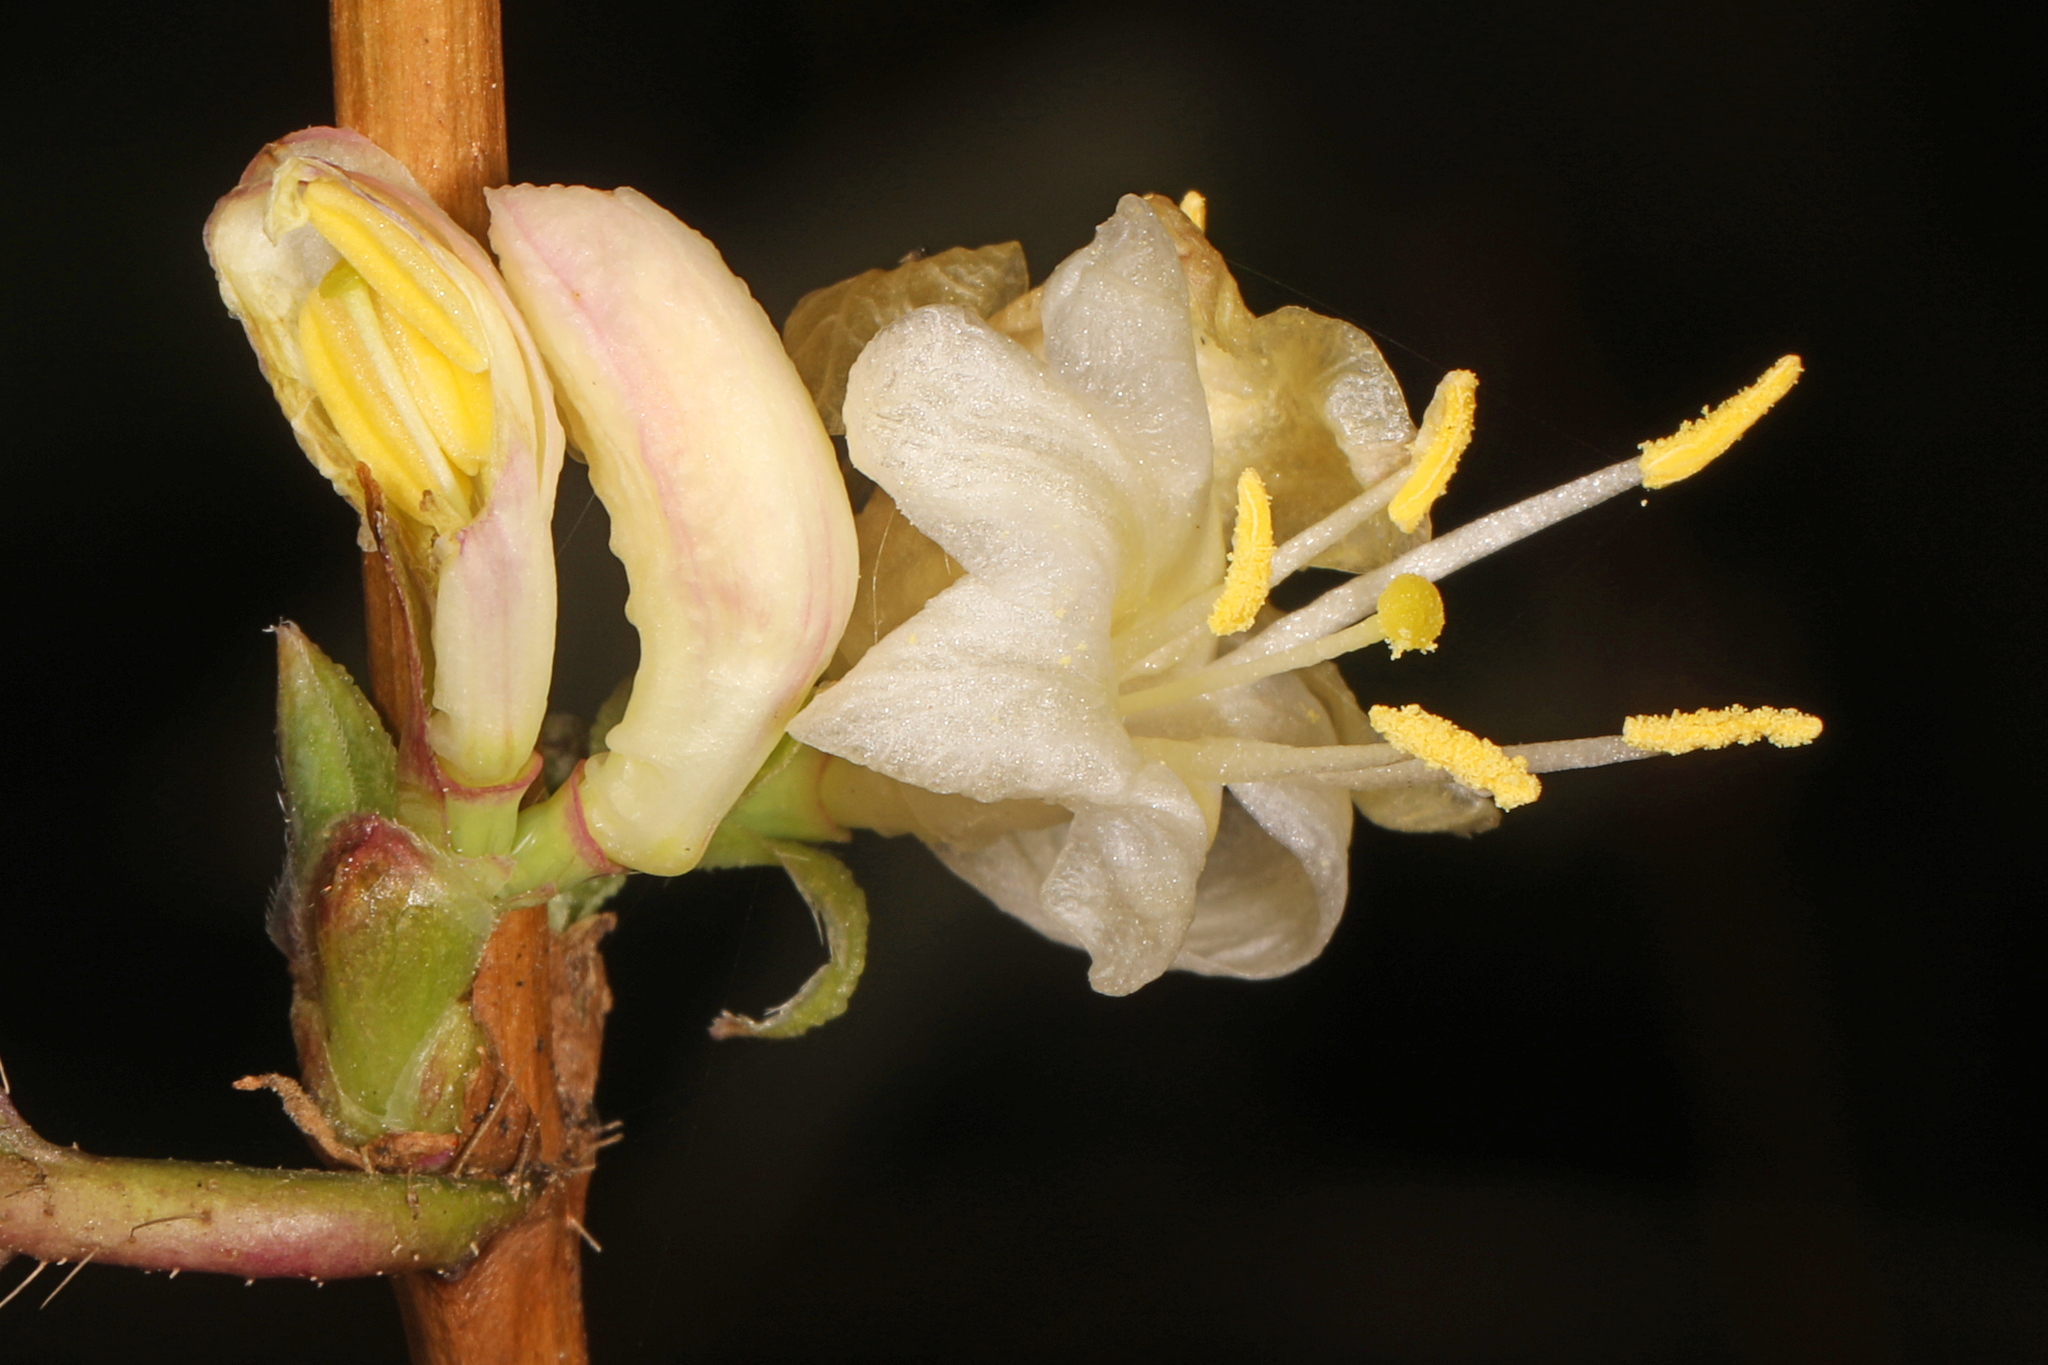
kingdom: Plantae
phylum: Tracheophyta
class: Magnoliopsida
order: Dipsacales
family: Caprifoliaceae
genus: Lonicera
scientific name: Lonicera fragrantissima
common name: Fragrant honeysuckle
